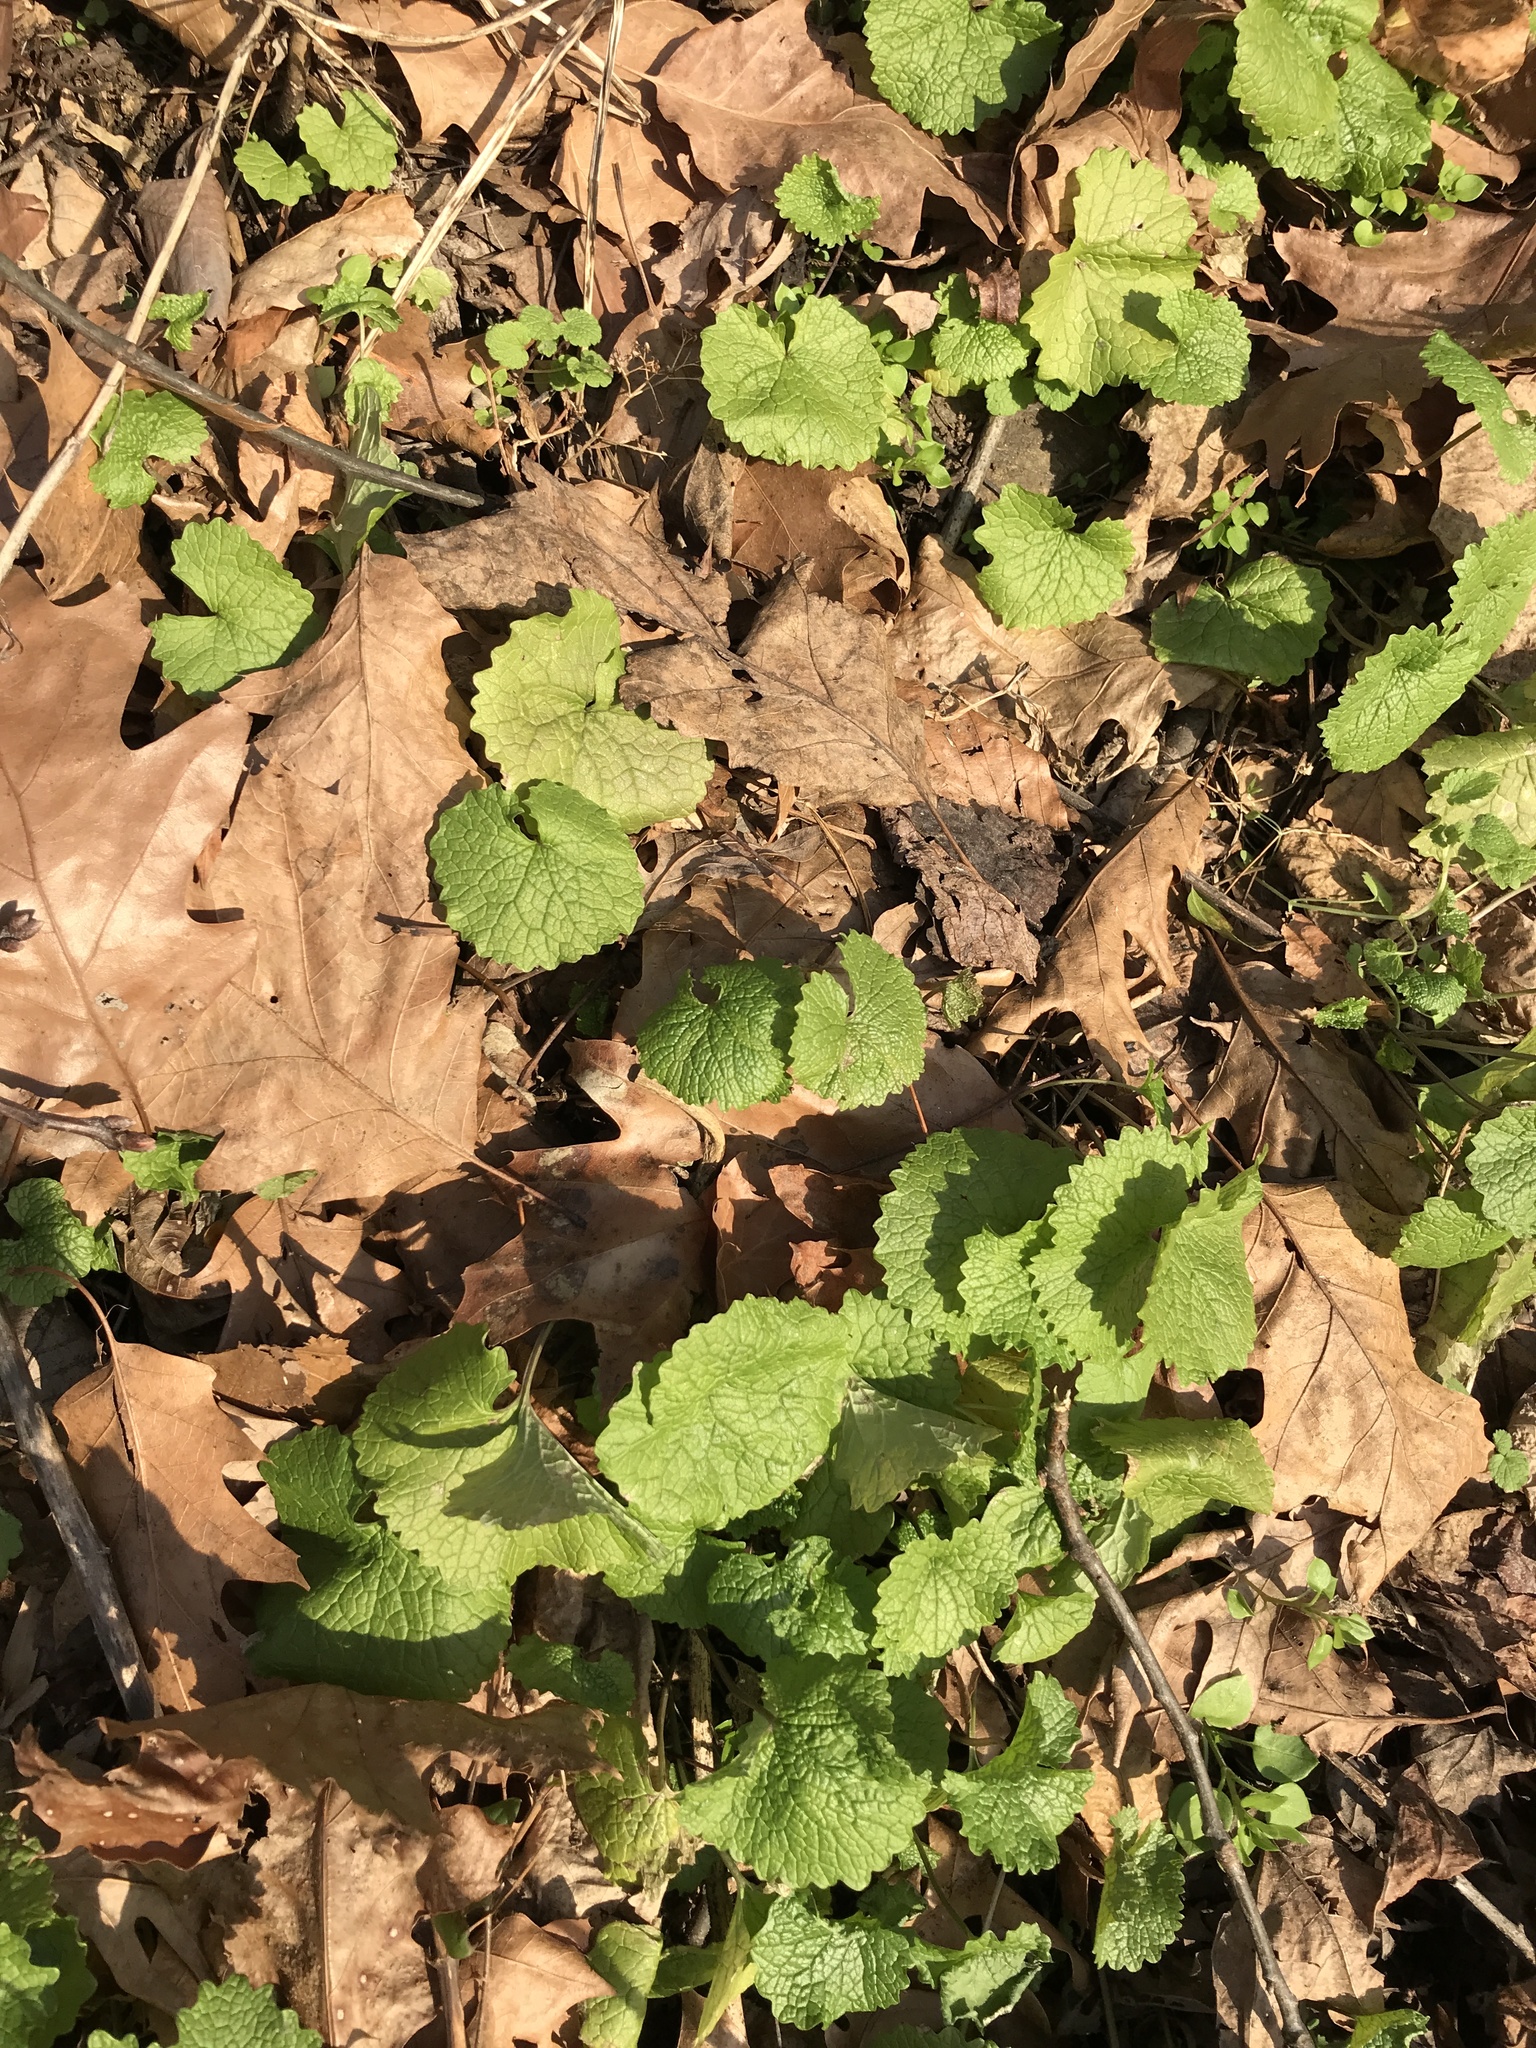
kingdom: Plantae
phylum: Tracheophyta
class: Magnoliopsida
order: Brassicales
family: Brassicaceae
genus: Alliaria
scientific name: Alliaria petiolata
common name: Garlic mustard
